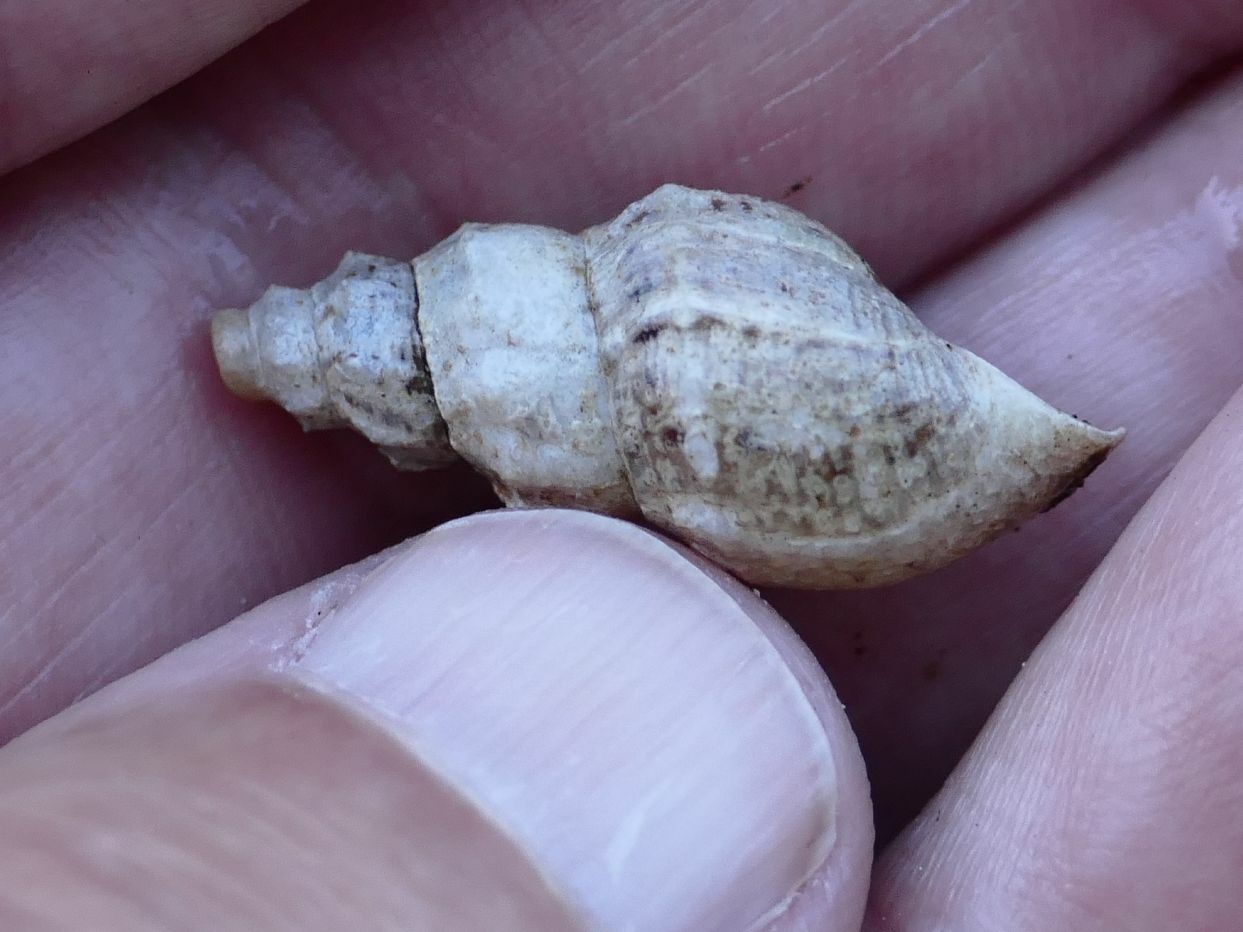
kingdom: Animalia
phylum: Mollusca
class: Gastropoda
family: Thiaridae
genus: Plotiopsis
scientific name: Plotiopsis balonnensis
